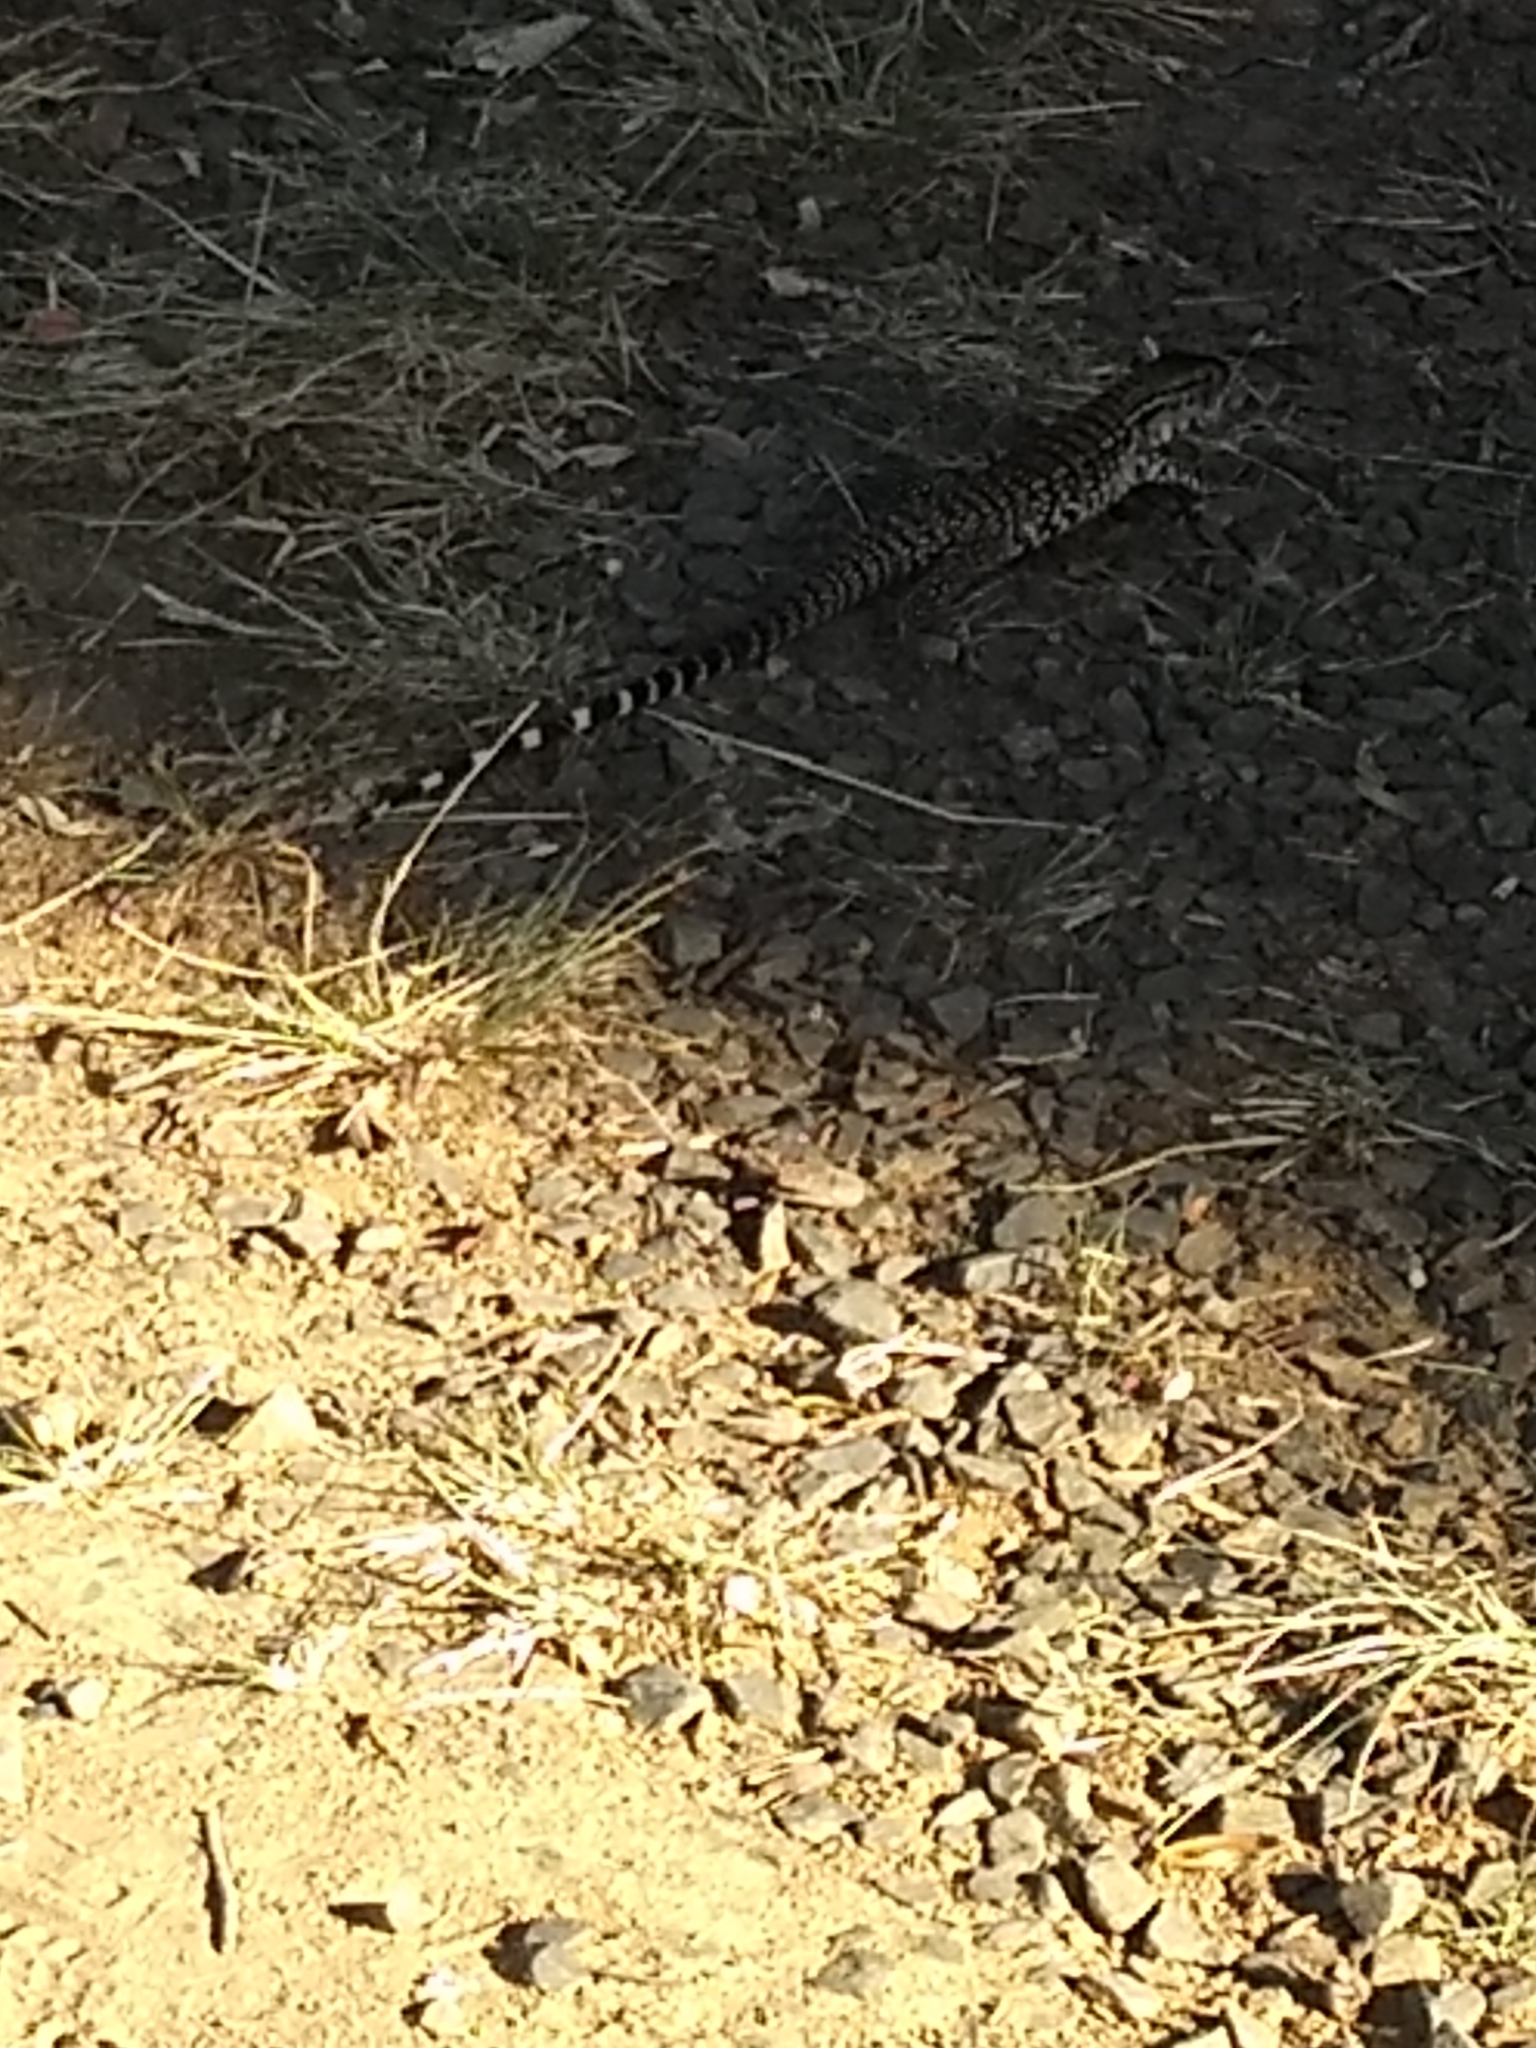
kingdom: Animalia
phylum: Chordata
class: Squamata
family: Teiidae
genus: Salvator
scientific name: Salvator merianae
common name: Argentine black and white tegu
